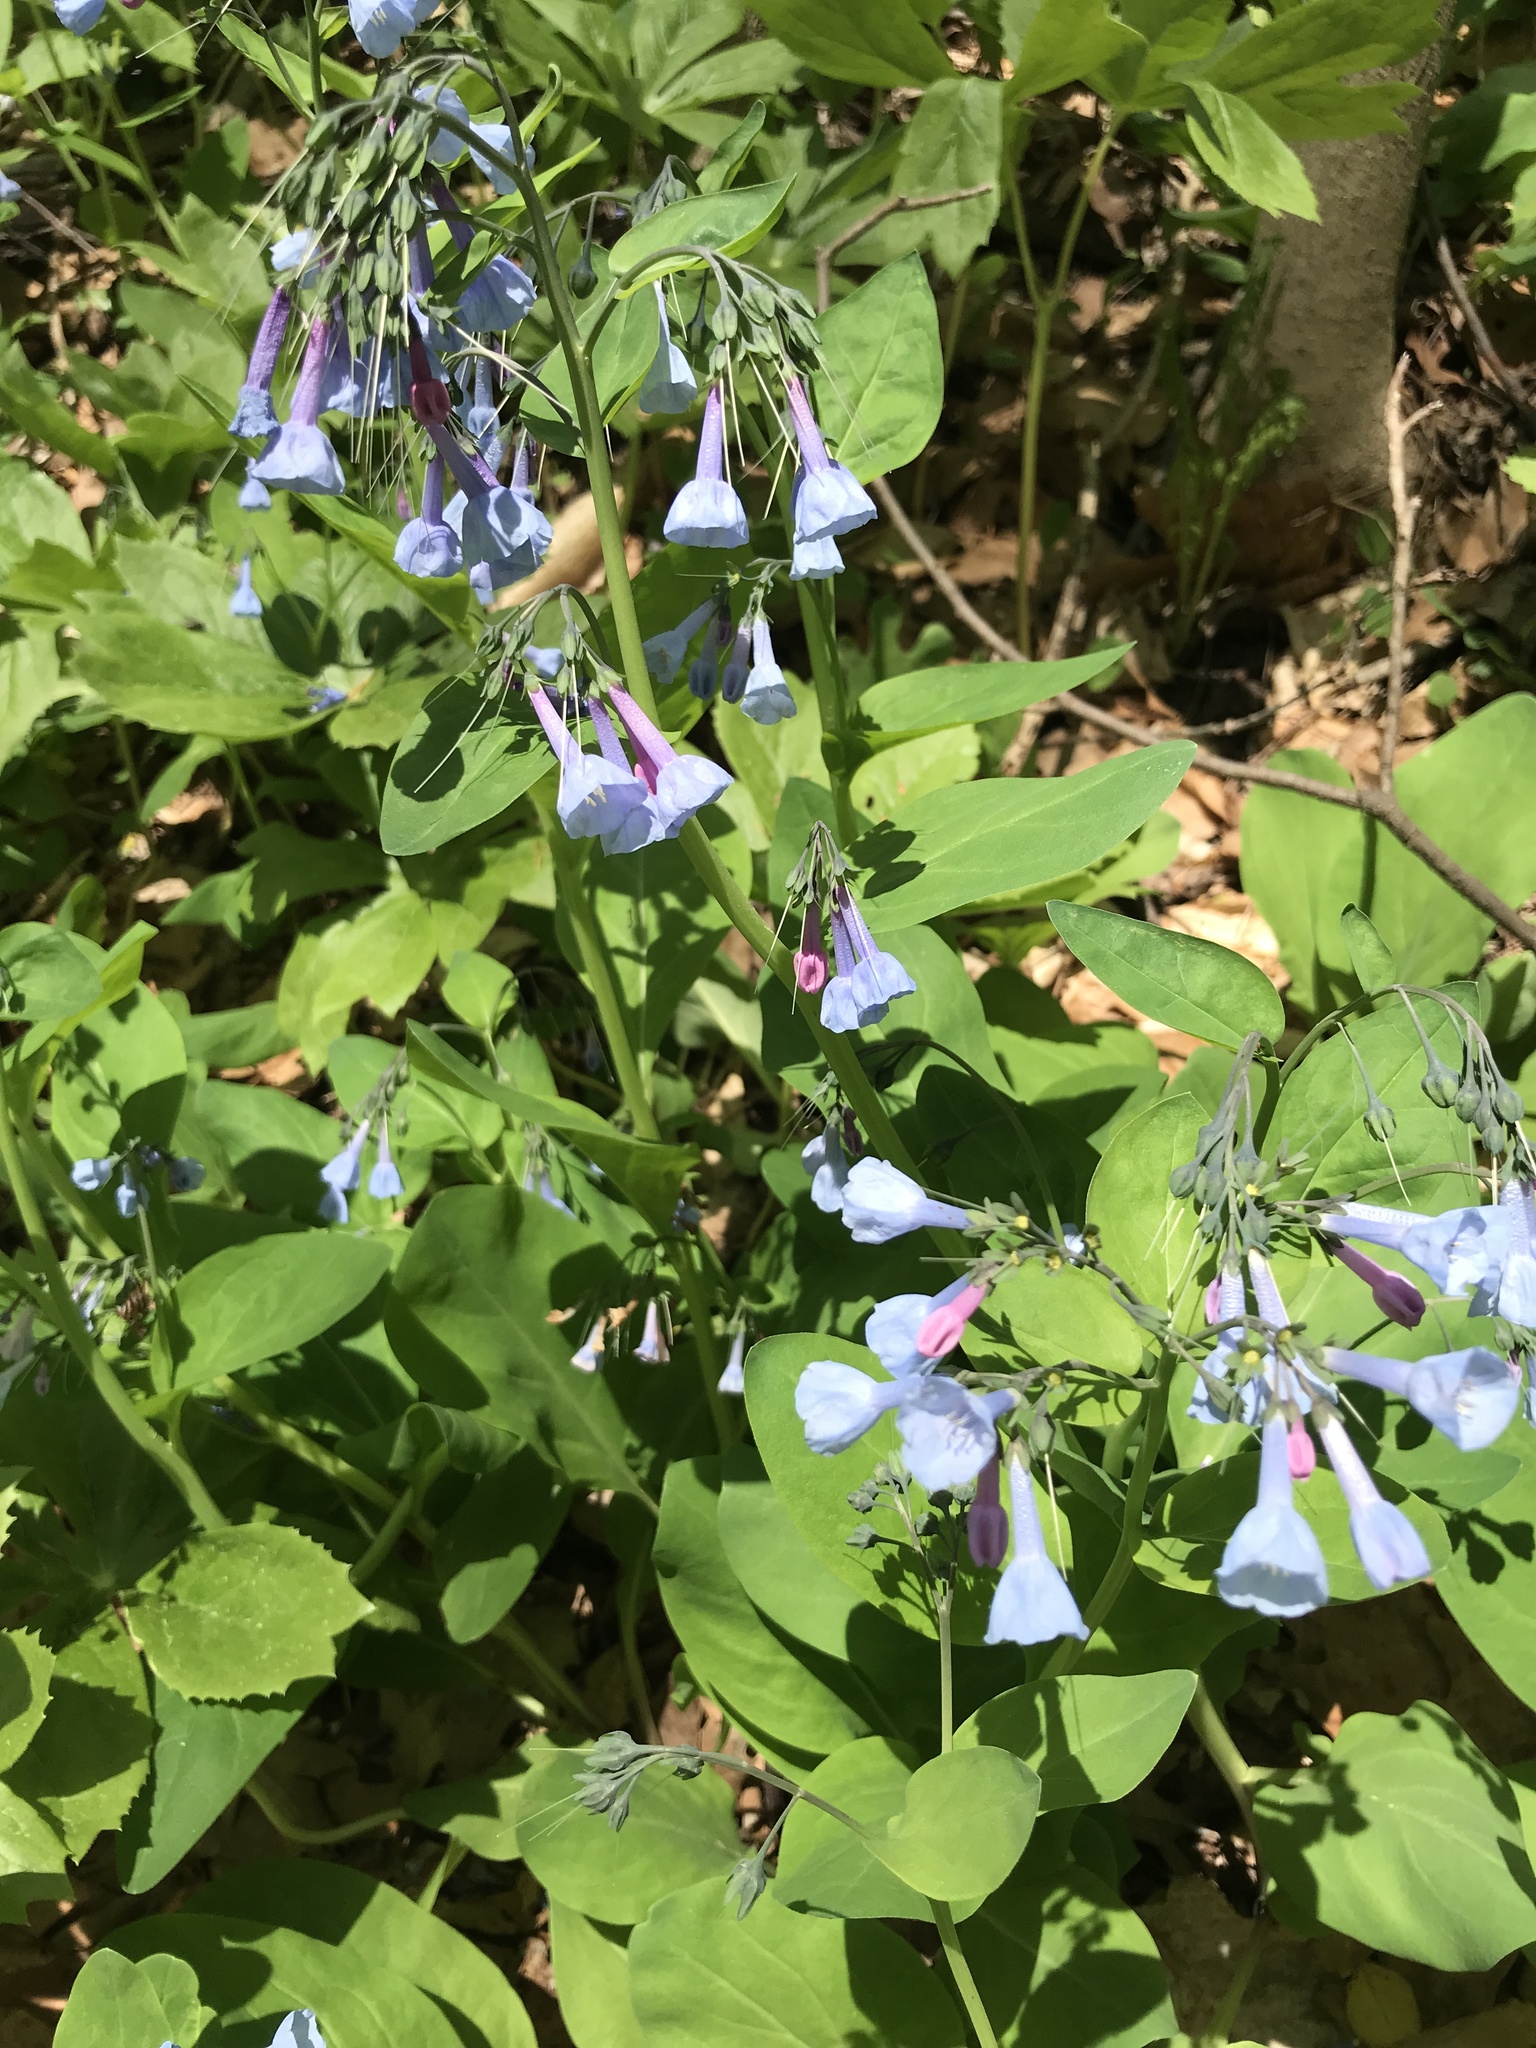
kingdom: Plantae
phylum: Tracheophyta
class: Magnoliopsida
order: Boraginales
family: Boraginaceae
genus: Mertensia
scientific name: Mertensia virginica
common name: Virginia bluebells
